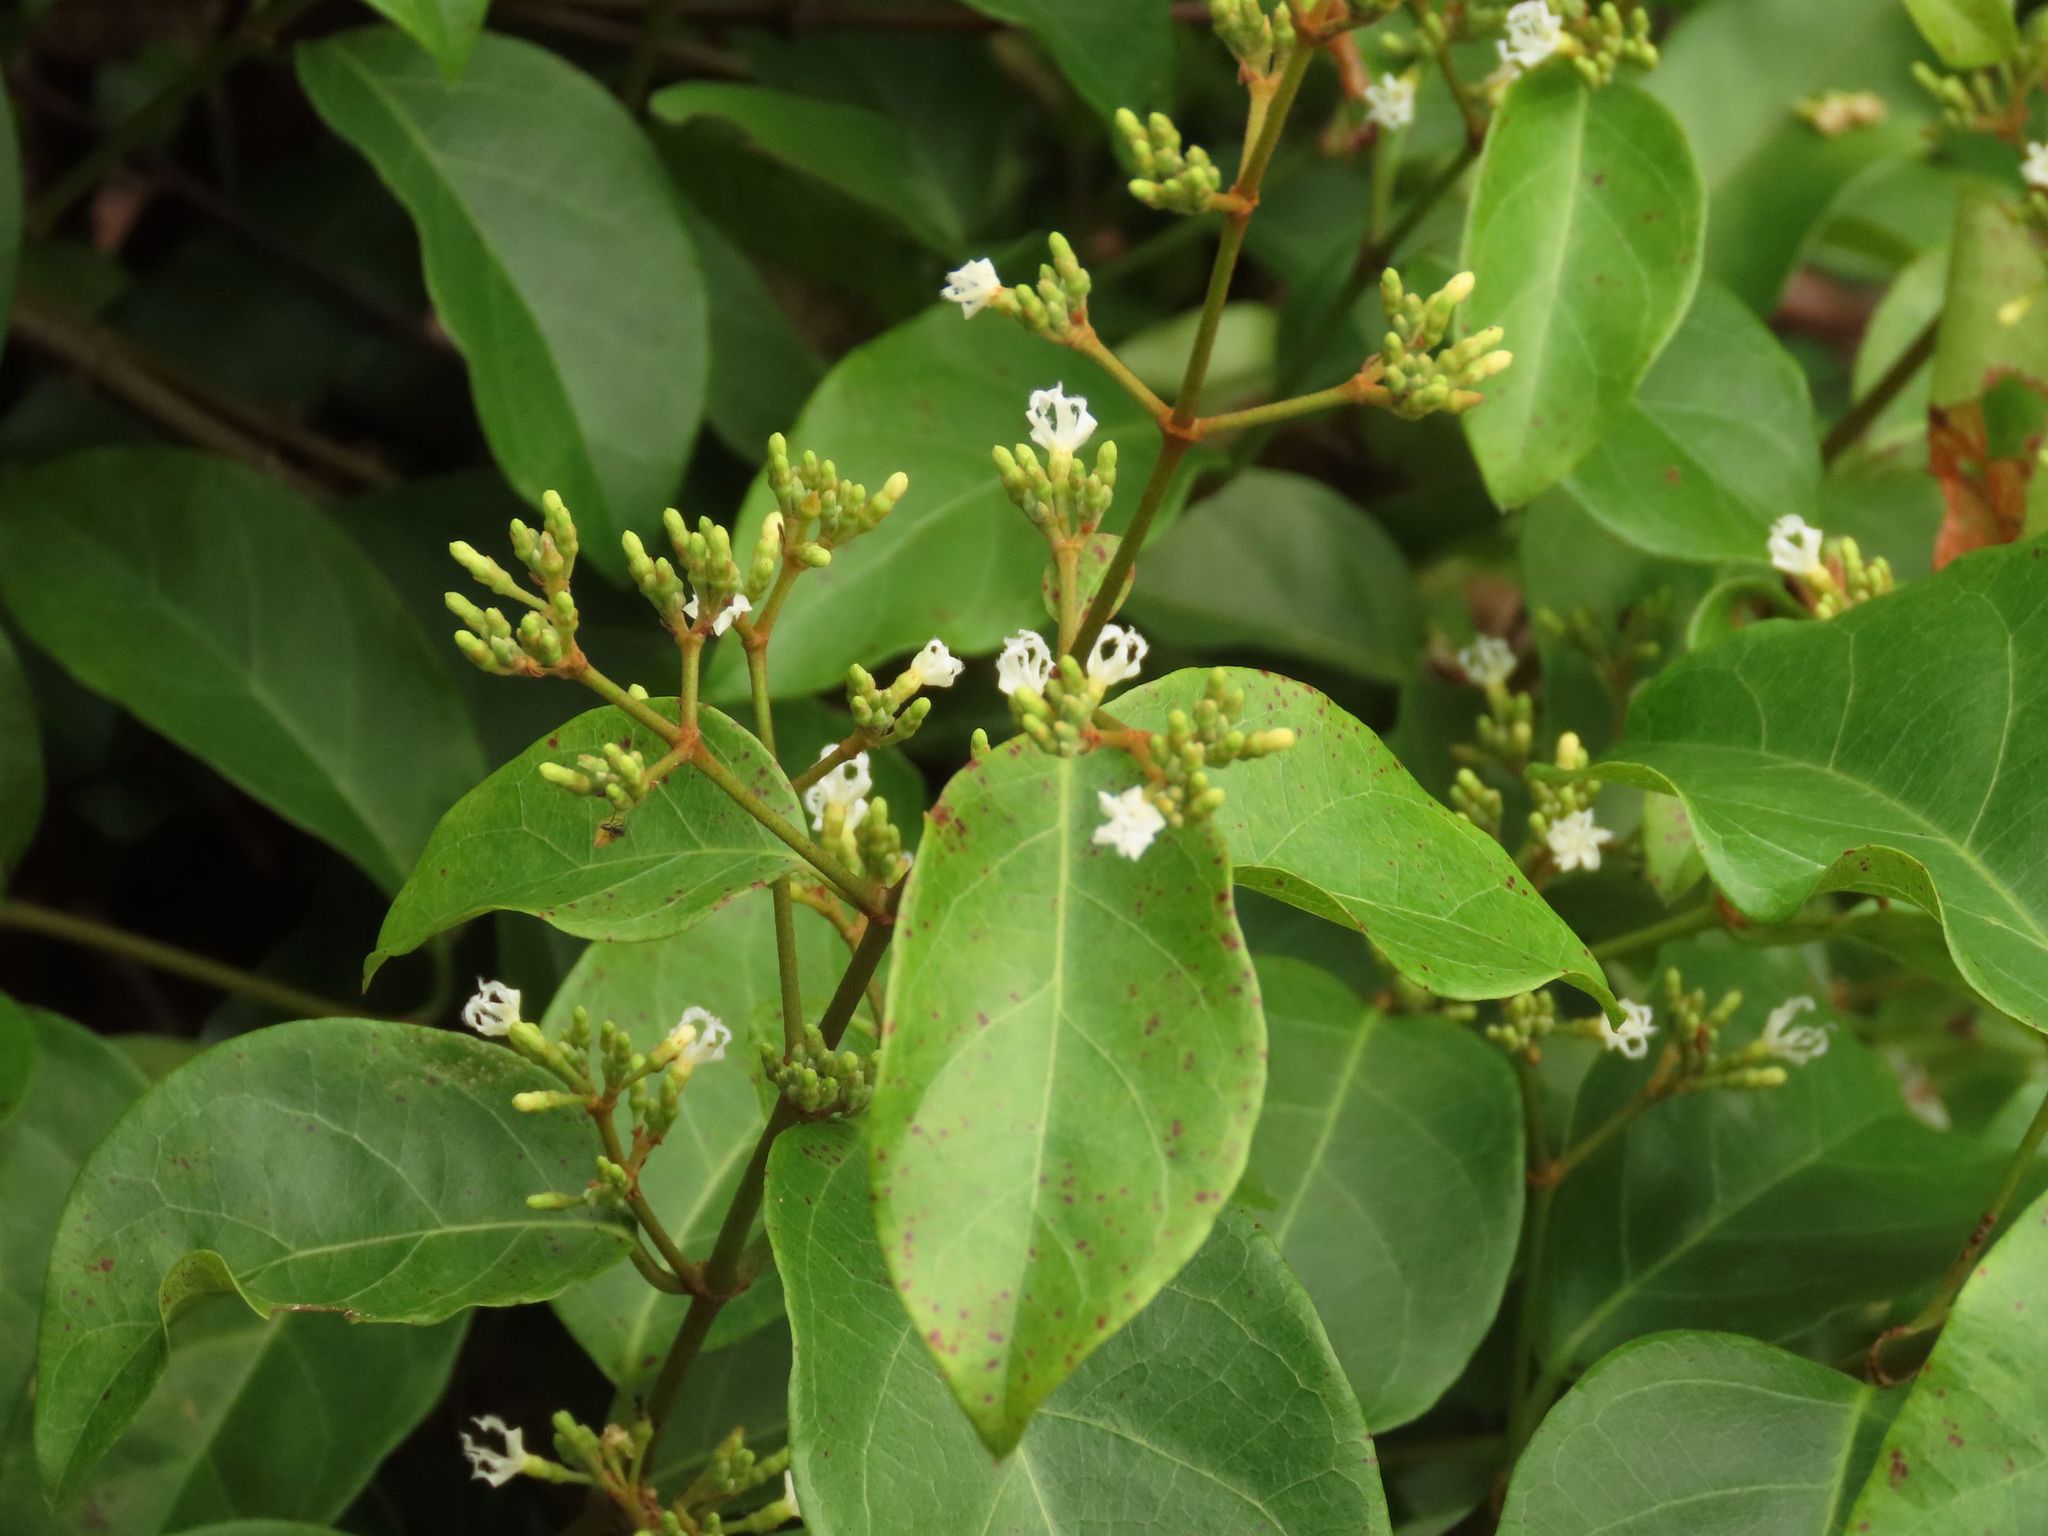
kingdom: Plantae
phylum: Tracheophyta
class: Magnoliopsida
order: Gentianales
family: Apocynaceae
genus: Ichnocarpus
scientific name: Ichnocarpus frutescens
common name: Ichnocarpus
